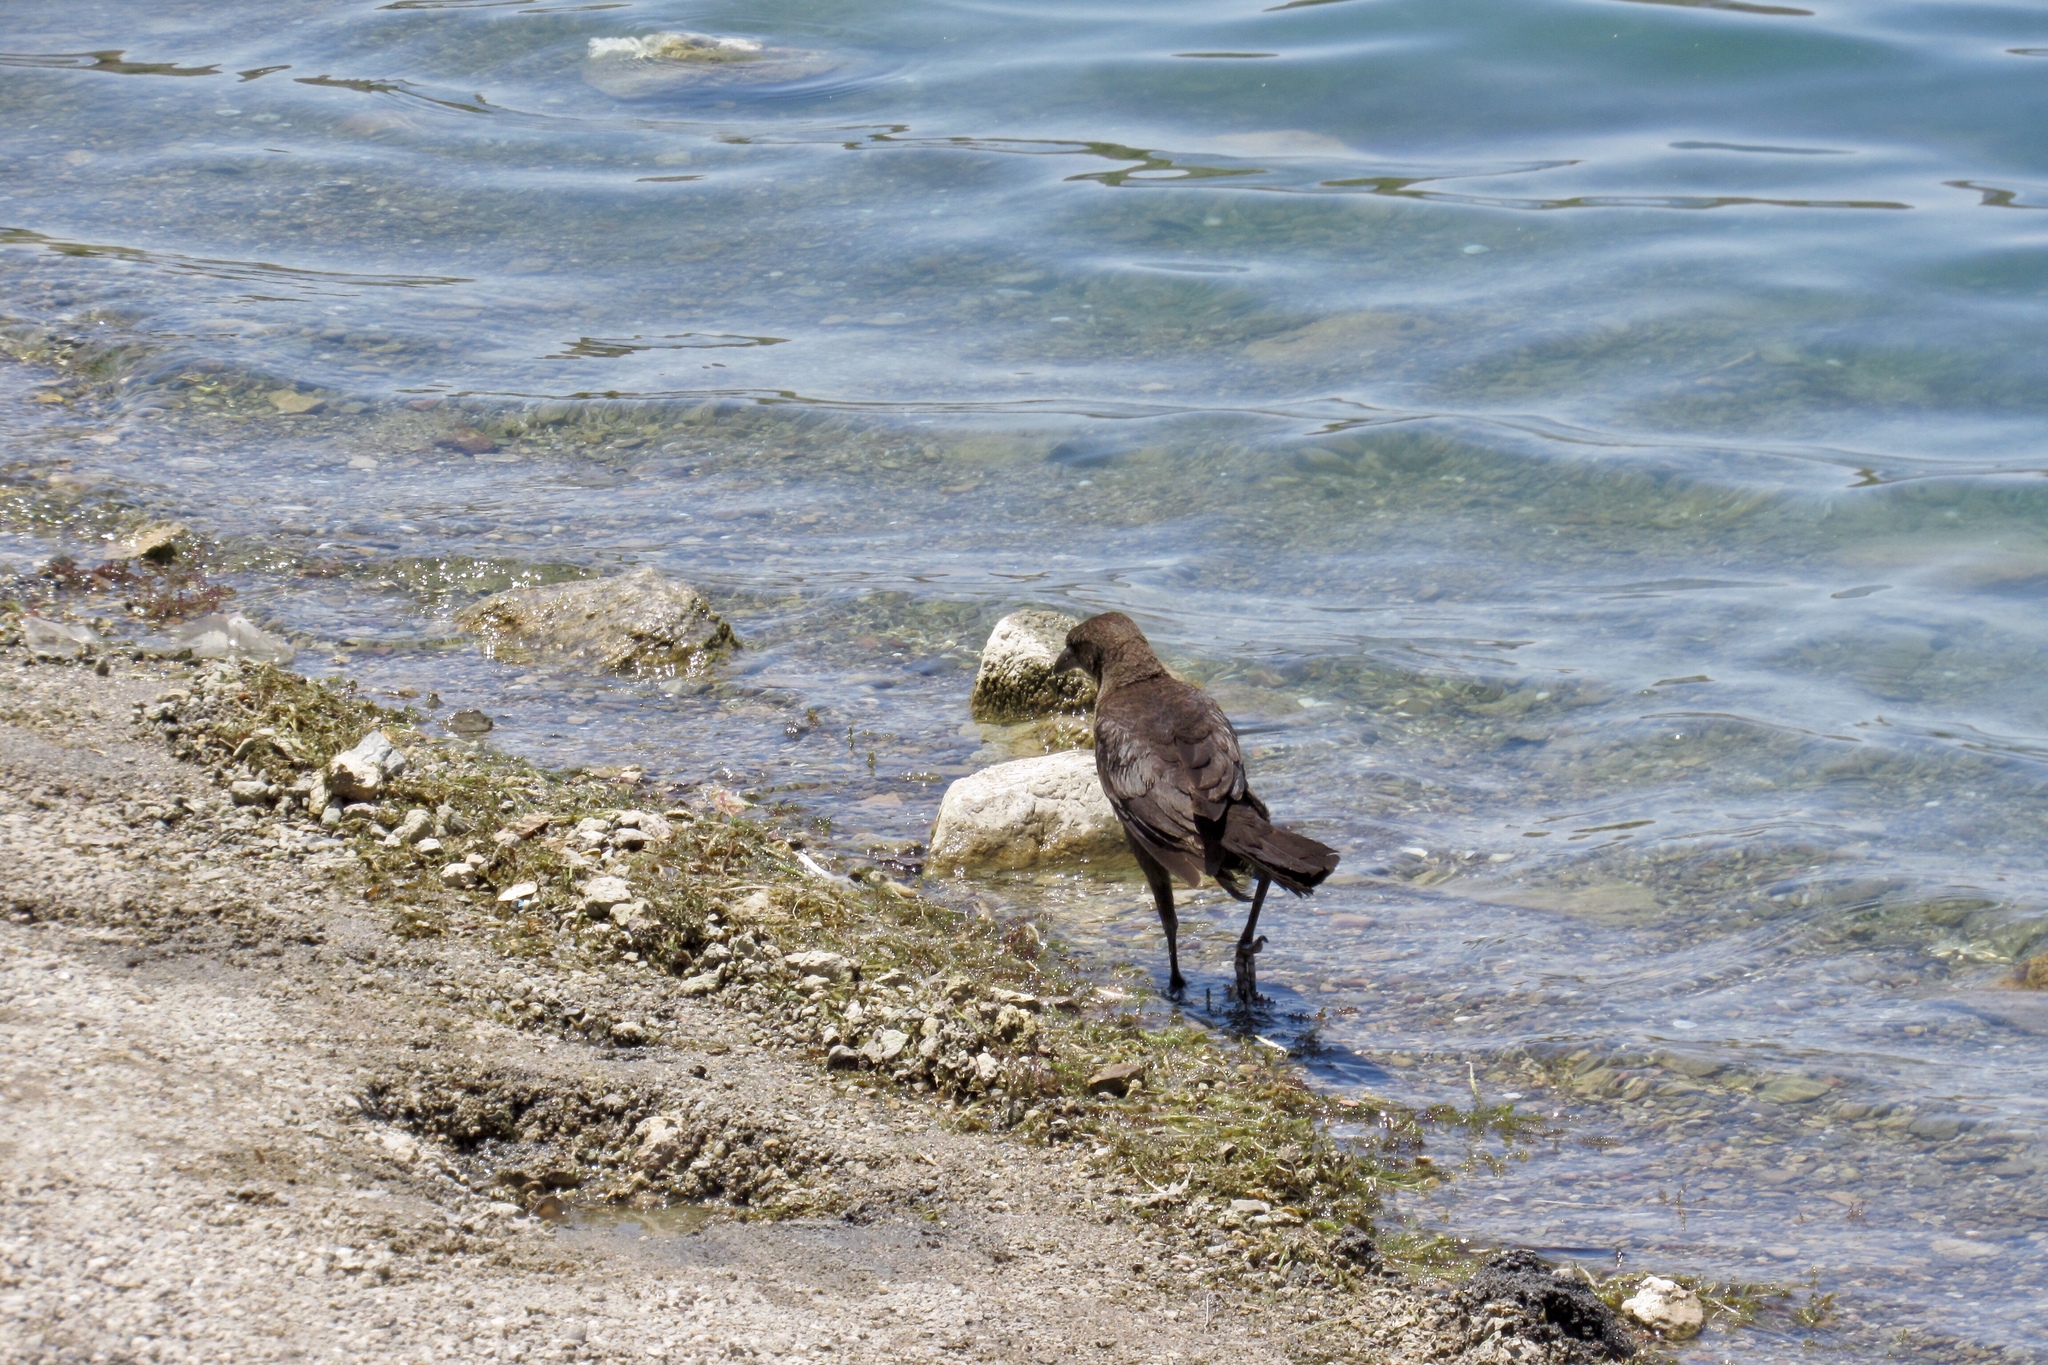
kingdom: Animalia
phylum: Chordata
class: Aves
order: Passeriformes
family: Icteridae
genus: Quiscalus
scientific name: Quiscalus mexicanus
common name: Great-tailed grackle
